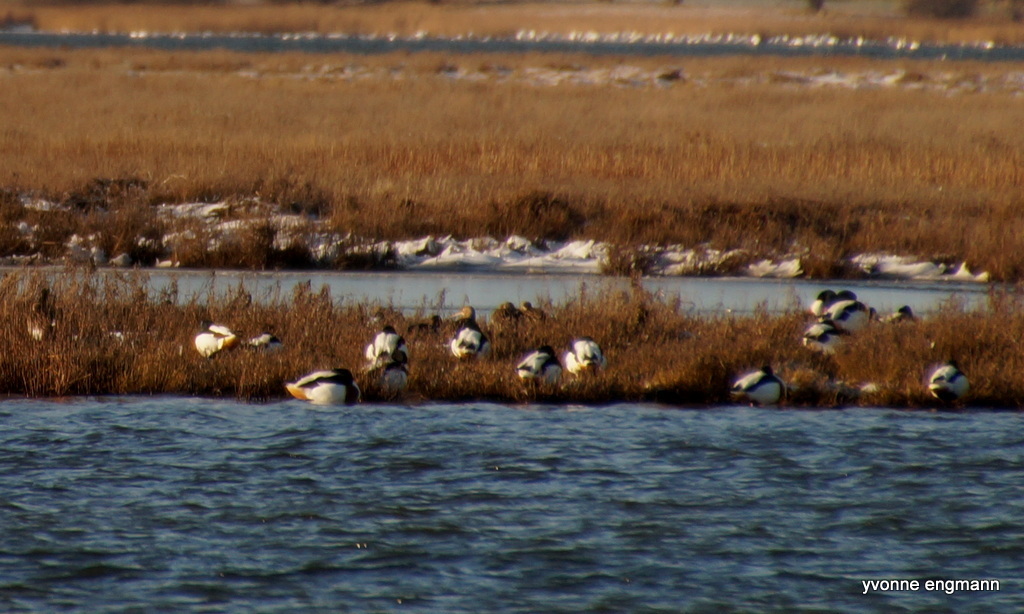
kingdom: Animalia
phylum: Chordata
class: Aves
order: Anseriformes
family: Anatidae
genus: Tadorna
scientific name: Tadorna tadorna
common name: Common shelduck
